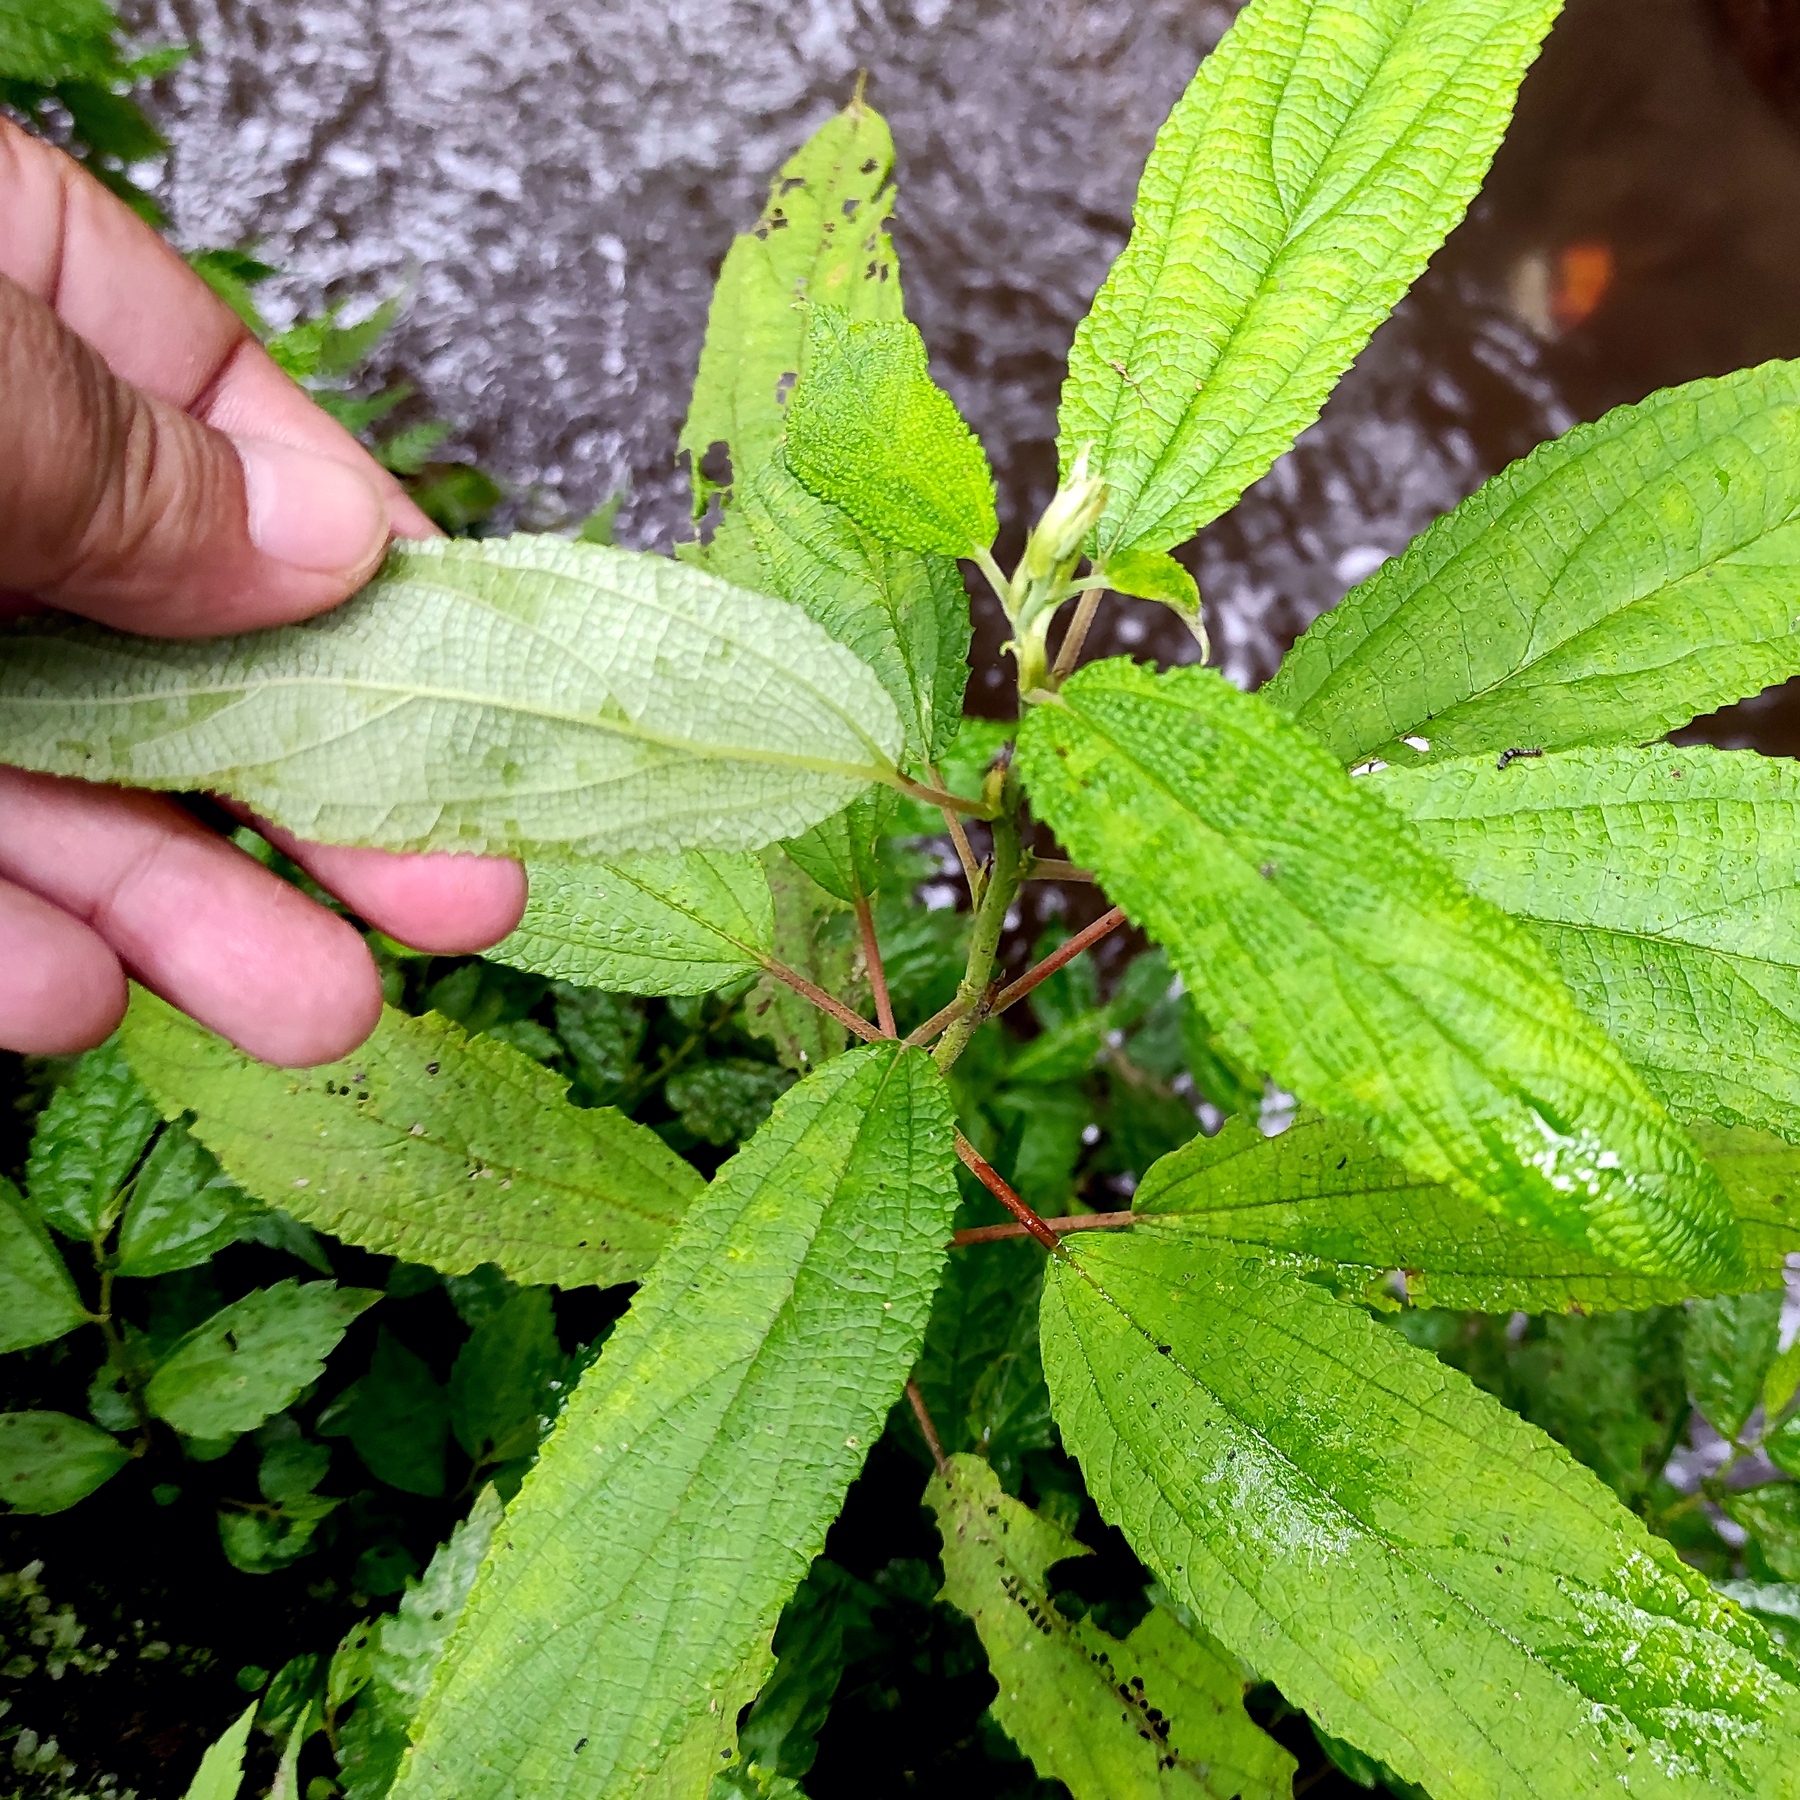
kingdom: Plantae
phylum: Tracheophyta
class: Magnoliopsida
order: Rosales
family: Urticaceae
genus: Debregeasia
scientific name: Debregeasia longifolia
